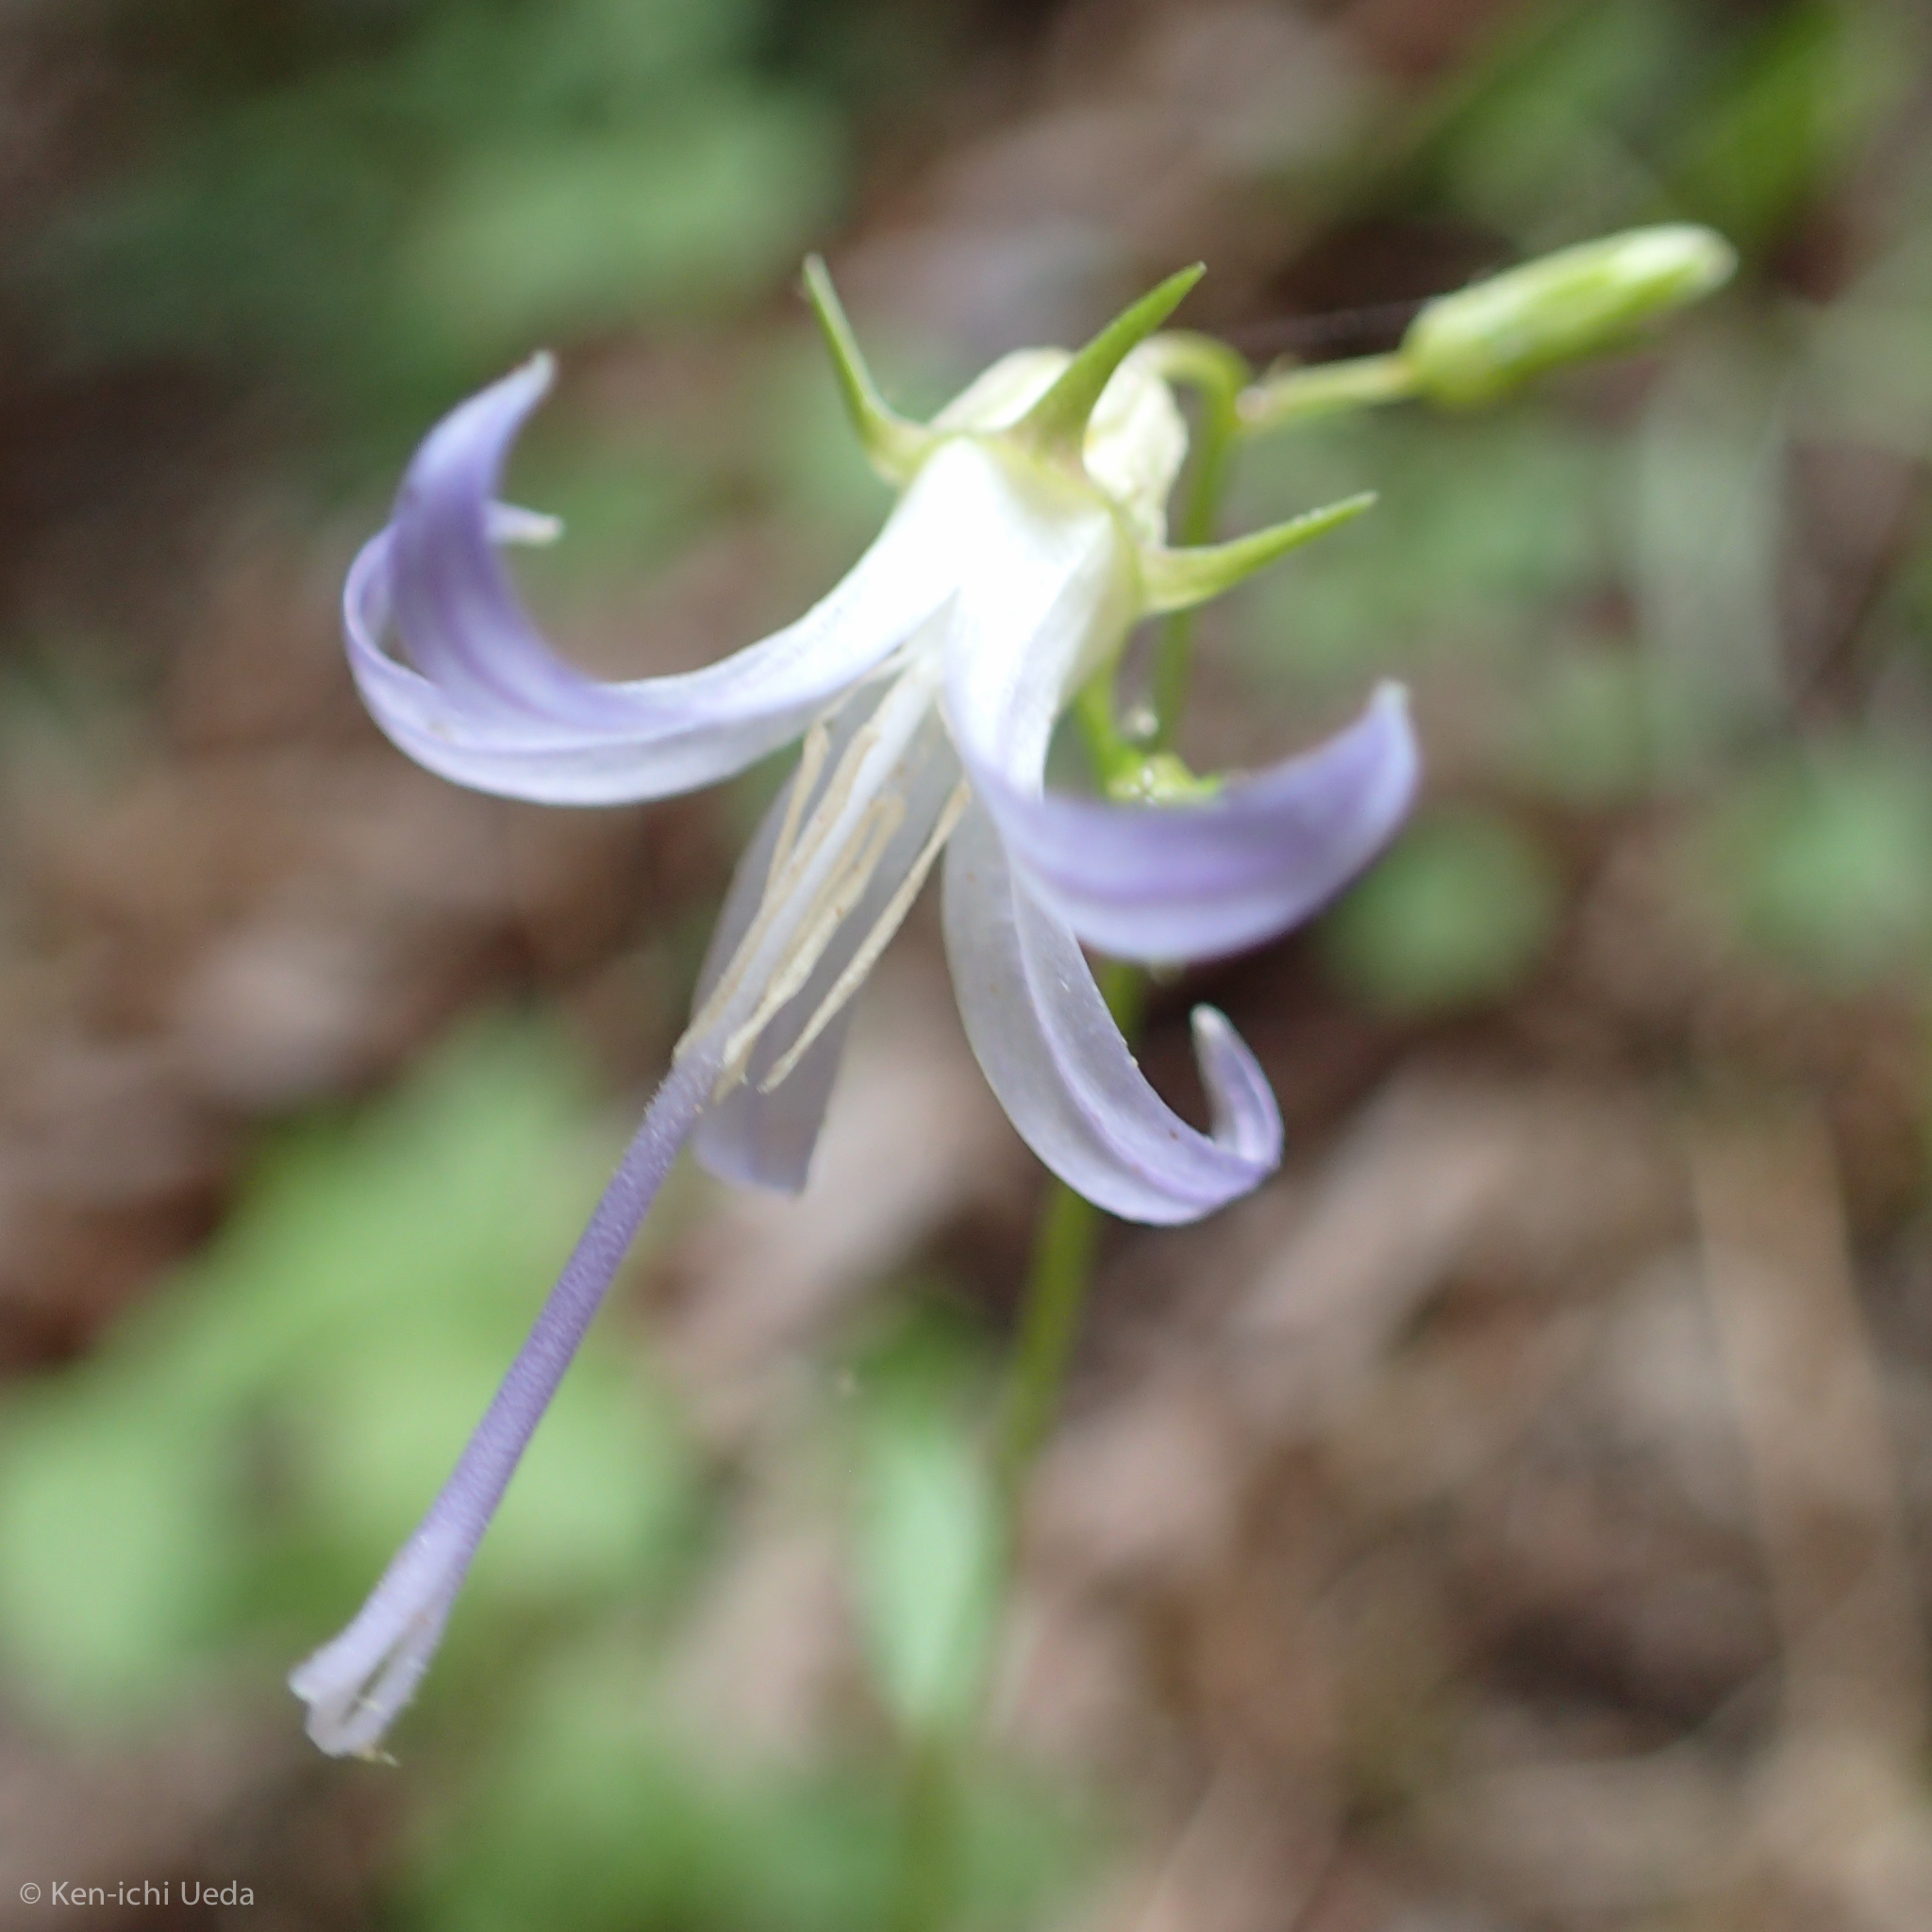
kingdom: Plantae
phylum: Tracheophyta
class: Magnoliopsida
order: Asterales
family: Campanulaceae
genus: Smithiastrum
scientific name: Smithiastrum prenanthoides
